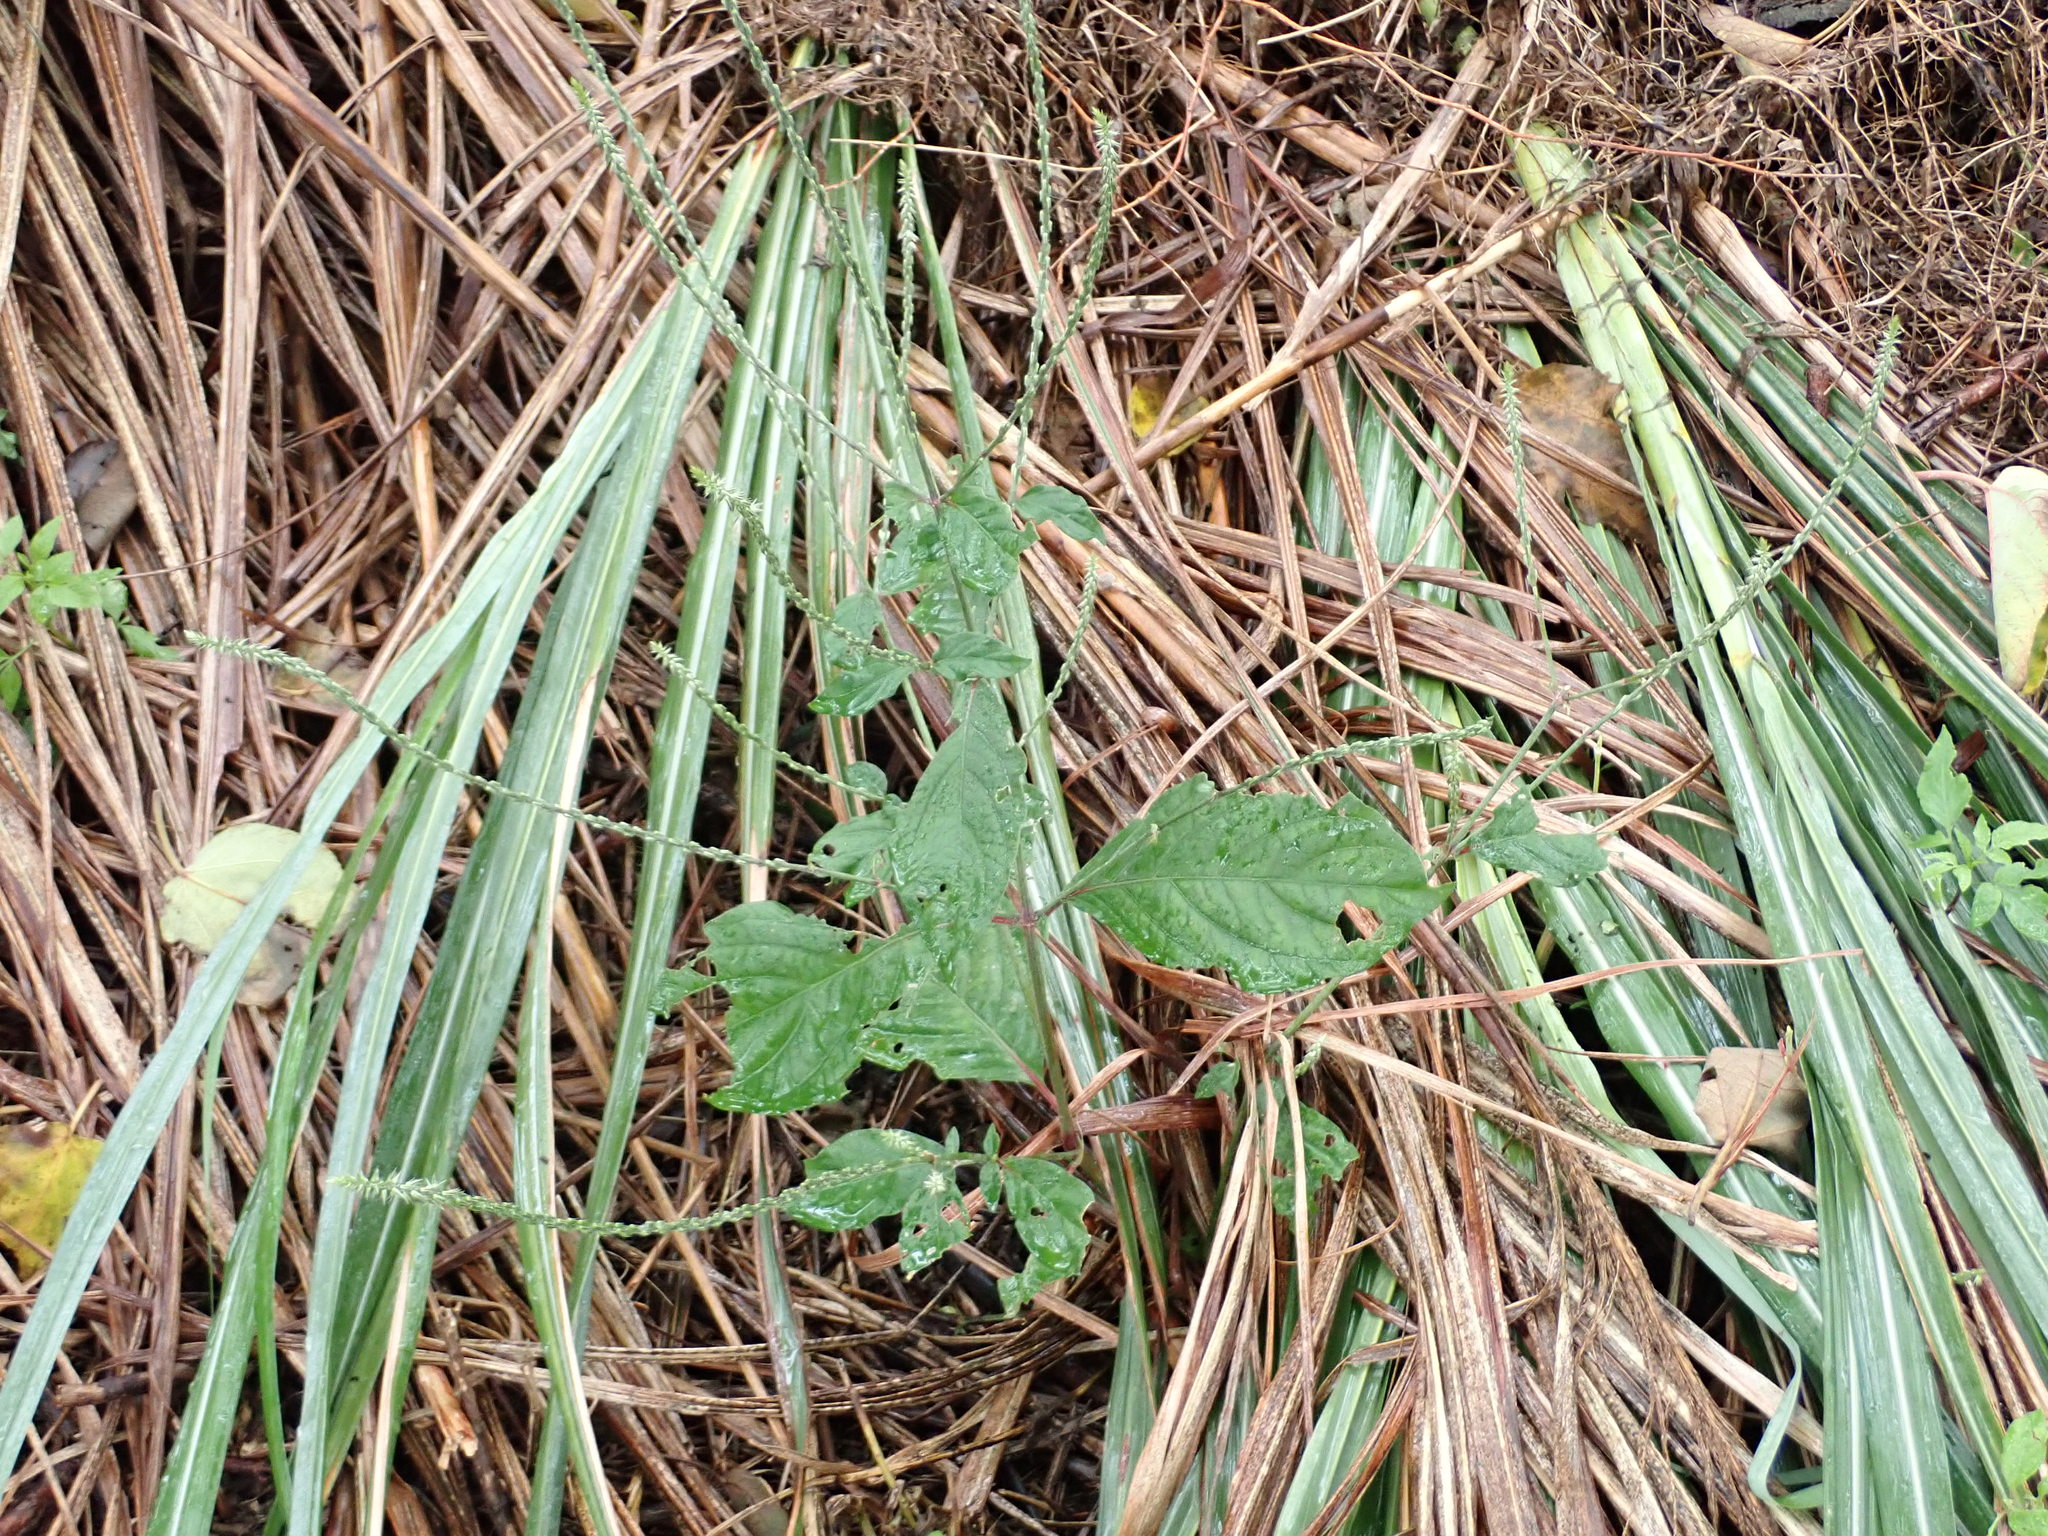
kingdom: Plantae
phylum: Tracheophyta
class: Magnoliopsida
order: Caryophyllales
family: Amaranthaceae
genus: Achyranthes
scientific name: Achyranthes aspera
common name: Devil's horsewhip
